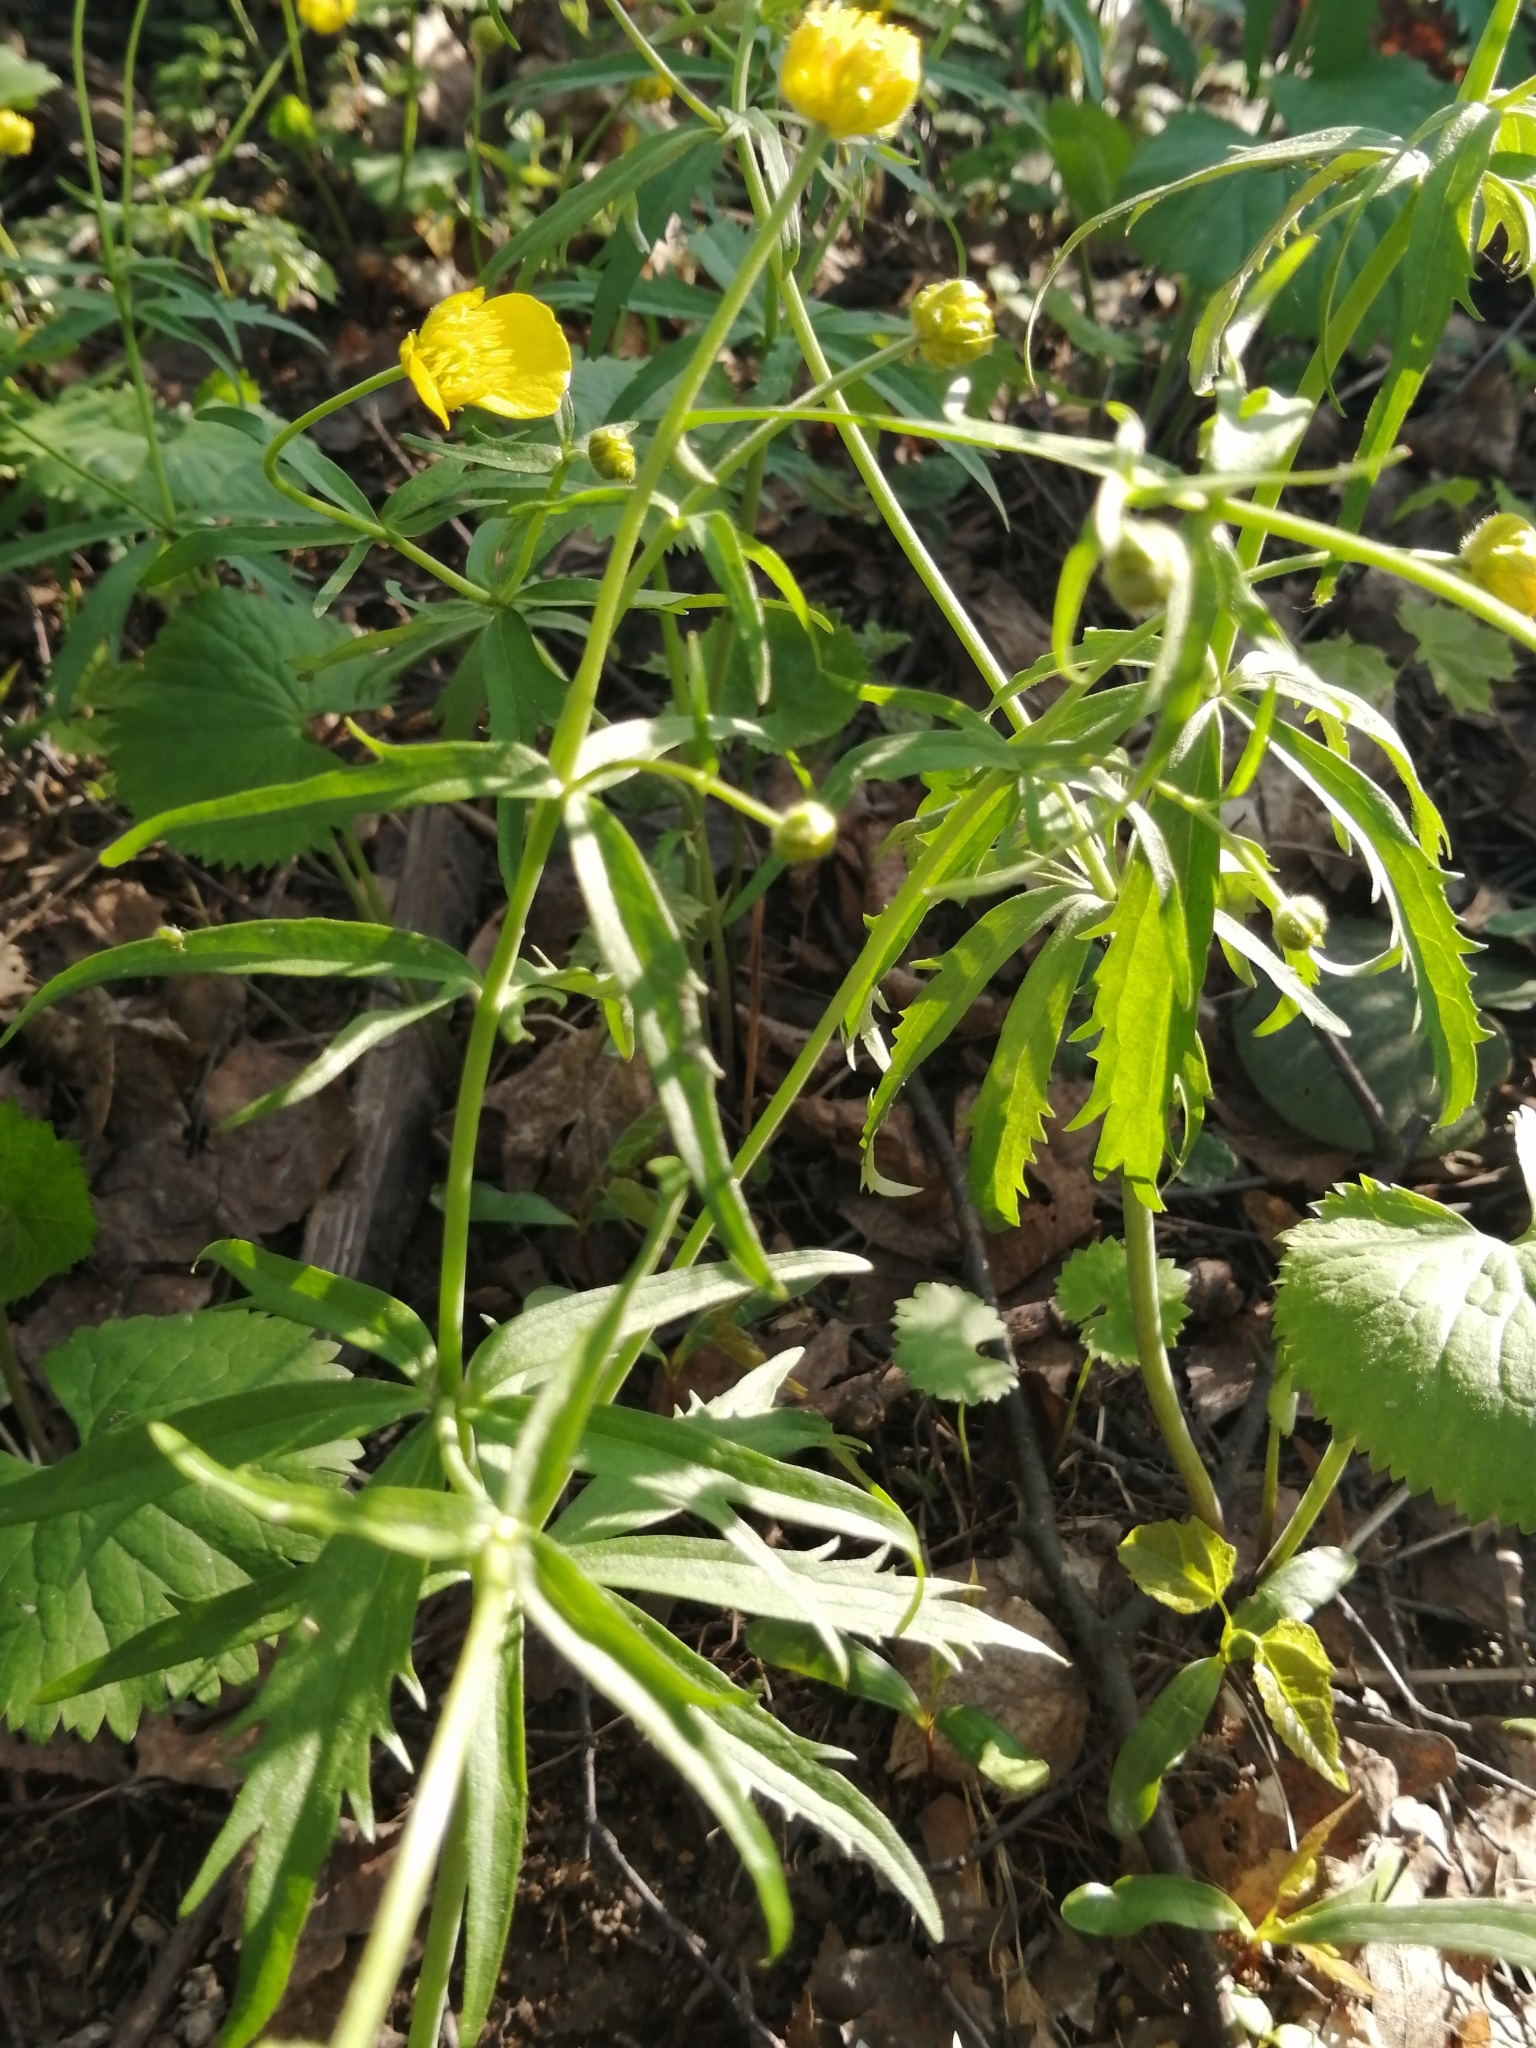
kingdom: Plantae
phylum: Tracheophyta
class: Magnoliopsida
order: Ranunculales
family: Ranunculaceae
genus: Ranunculus
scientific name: Ranunculus cassubicus
